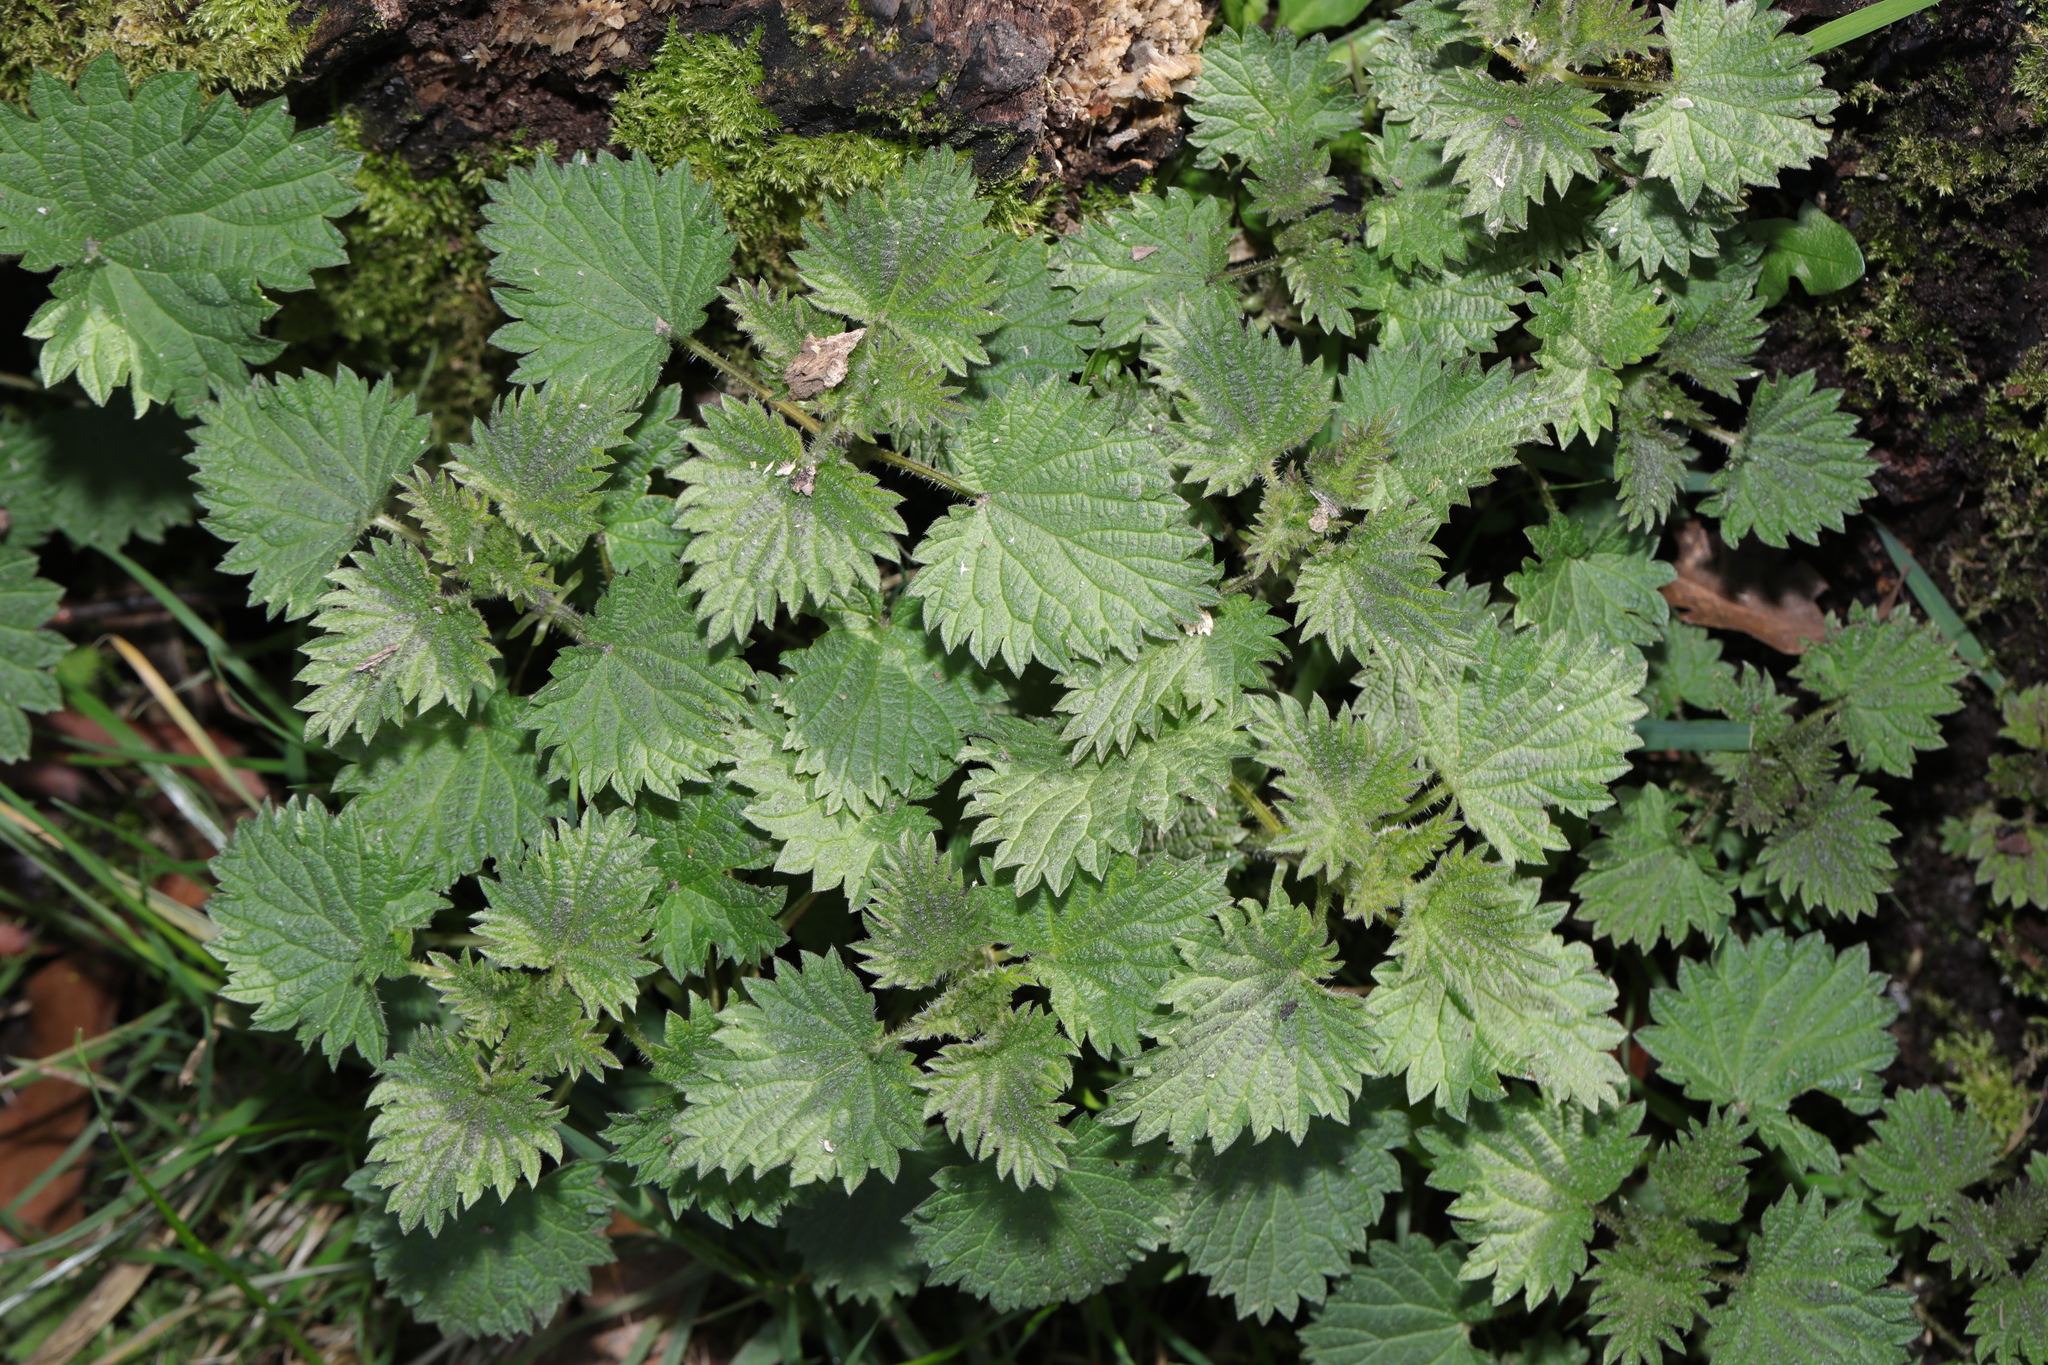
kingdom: Plantae
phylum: Tracheophyta
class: Magnoliopsida
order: Rosales
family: Urticaceae
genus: Urtica
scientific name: Urtica dioica
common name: Common nettle
